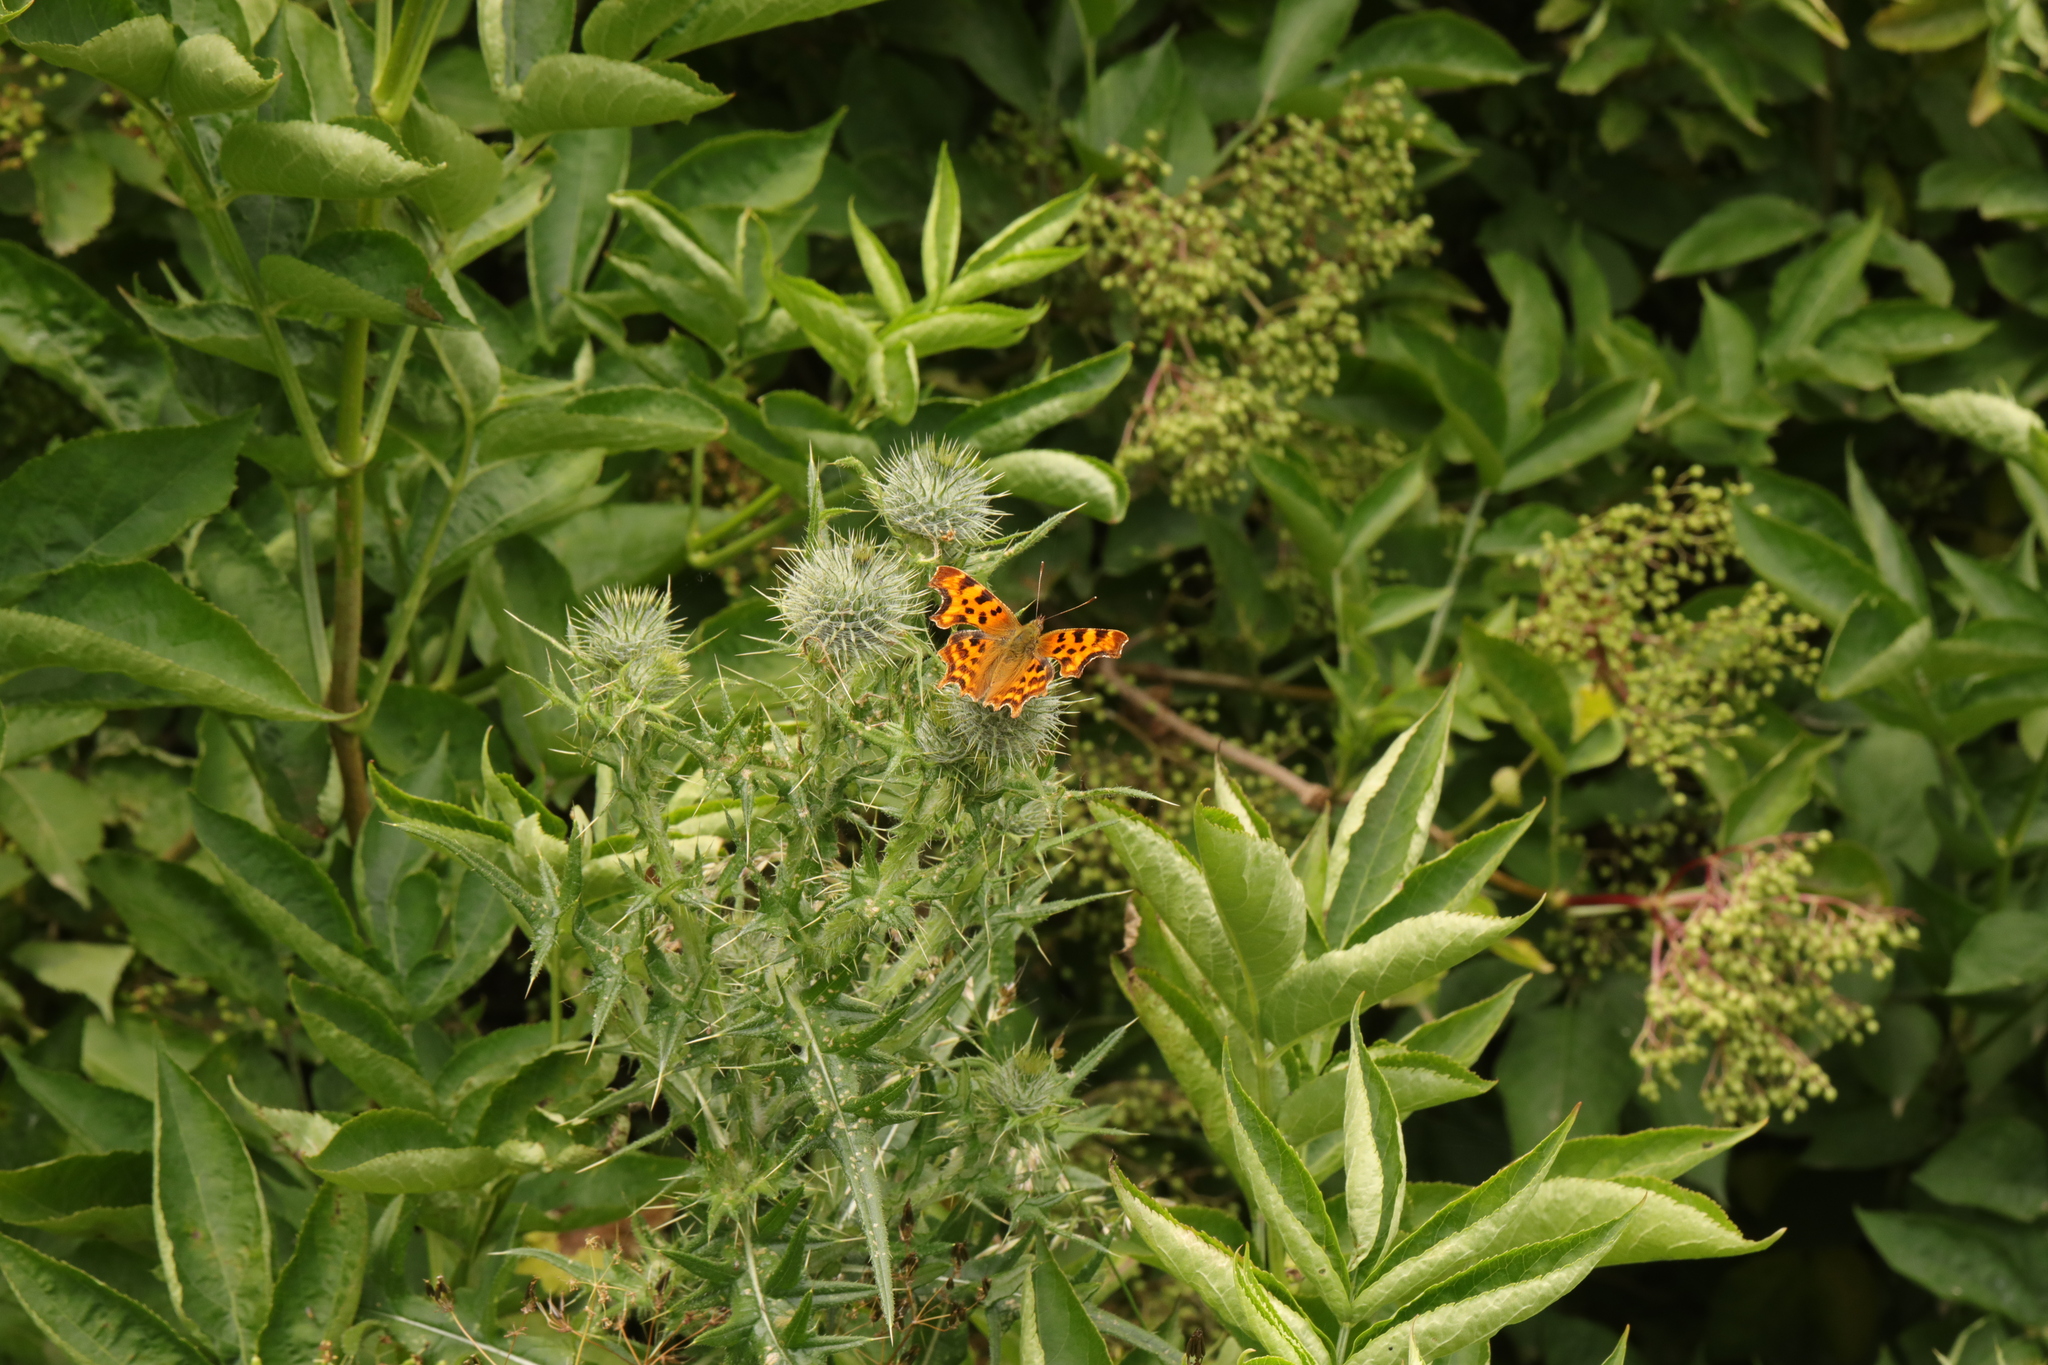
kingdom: Animalia
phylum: Arthropoda
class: Insecta
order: Lepidoptera
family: Nymphalidae
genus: Polygonia
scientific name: Polygonia c-album
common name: Comma
